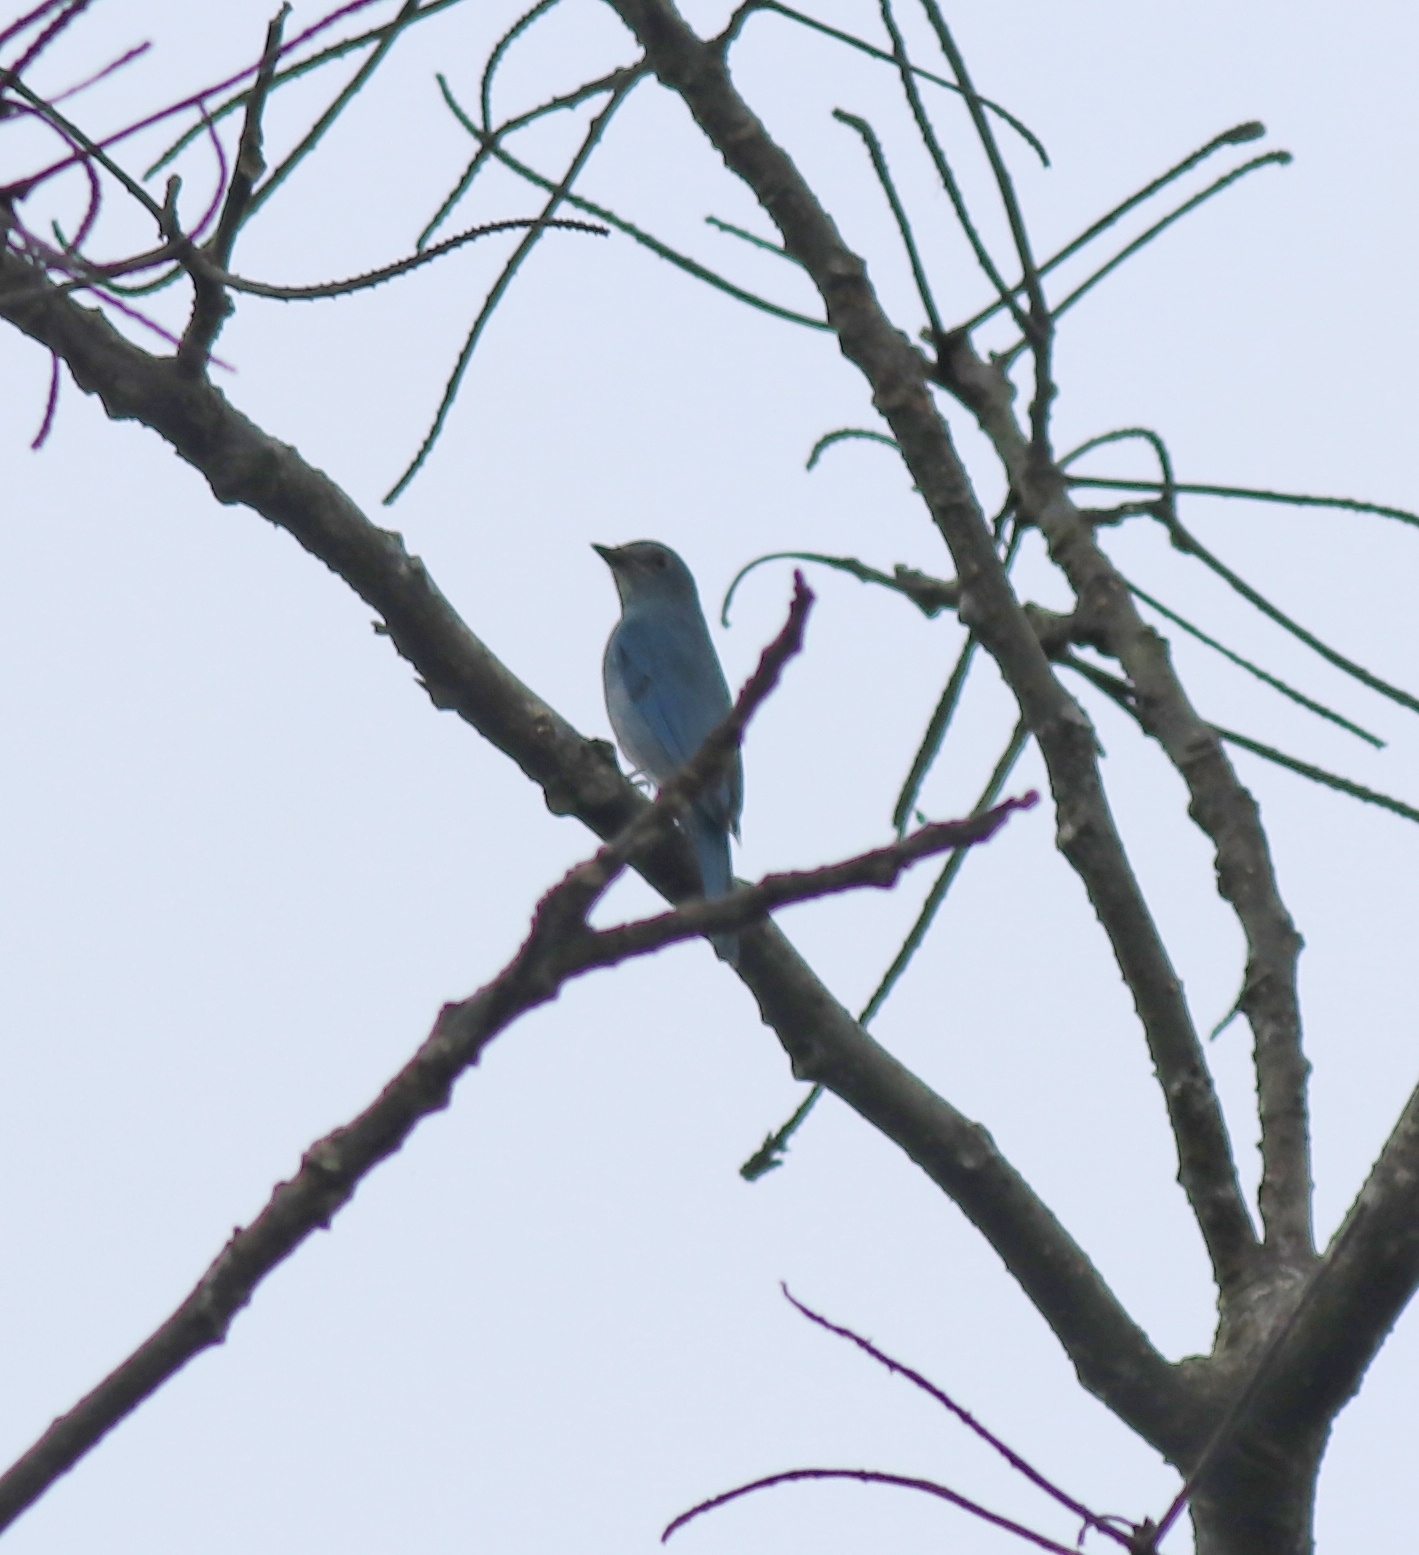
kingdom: Animalia
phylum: Chordata
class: Aves
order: Passeriformes
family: Muscicapidae
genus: Eumyias
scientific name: Eumyias thalassinus
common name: Verditer flycatcher
